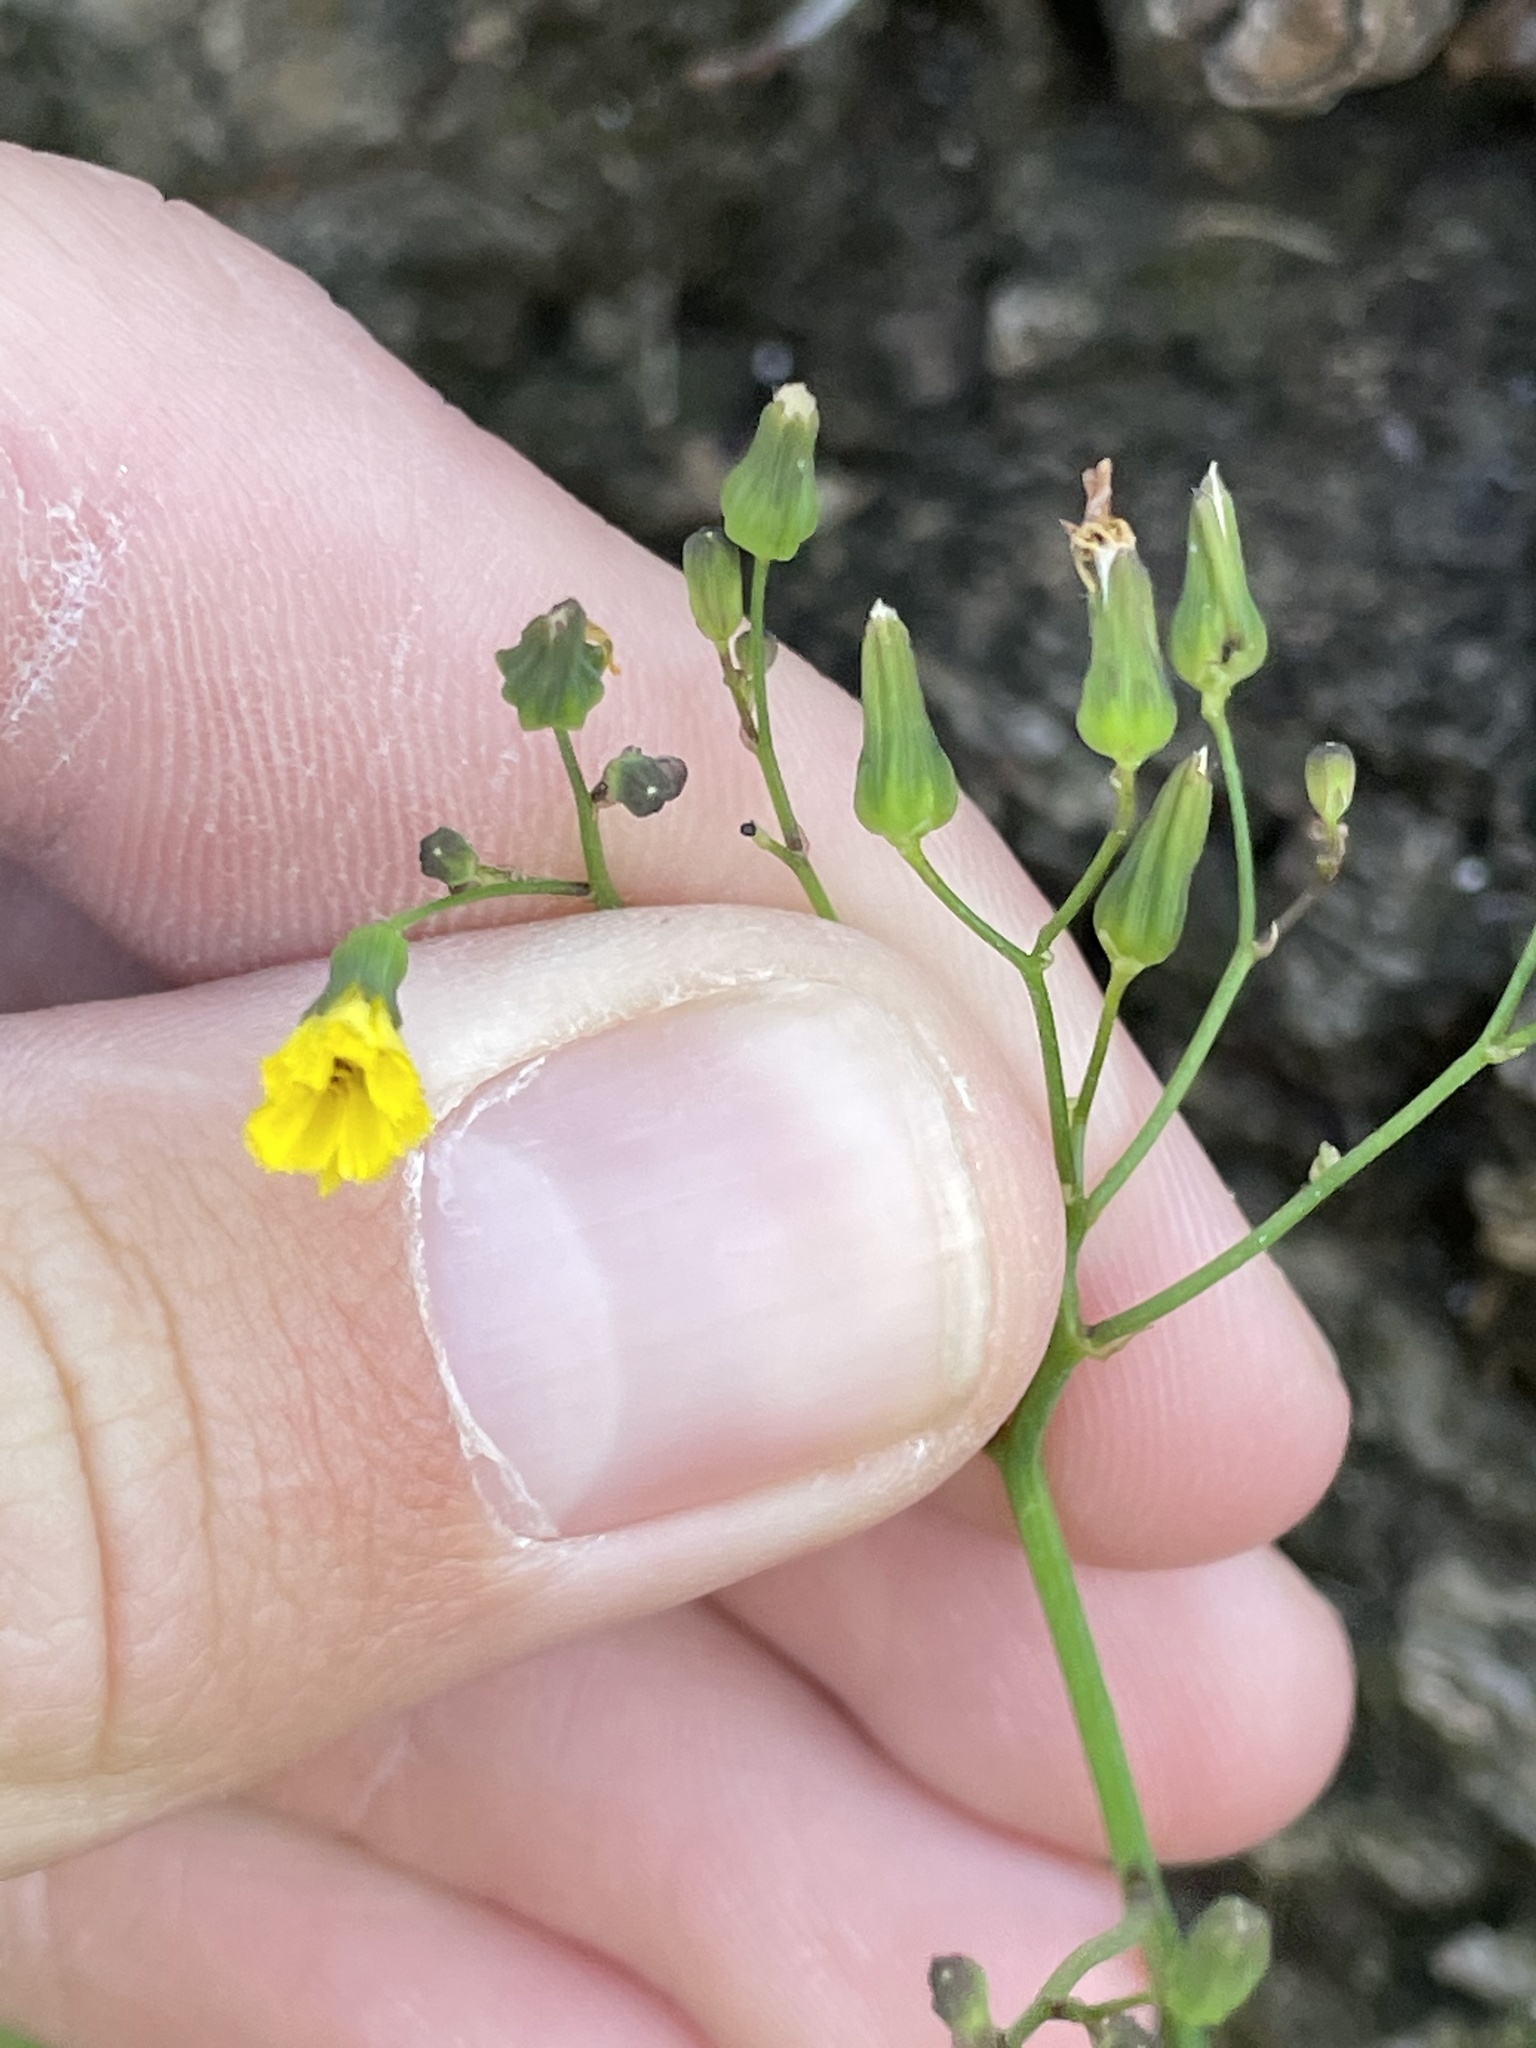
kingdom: Plantae
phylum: Tracheophyta
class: Magnoliopsida
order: Asterales
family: Asteraceae
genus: Youngia
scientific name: Youngia japonica
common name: Oriental false hawksbeard
